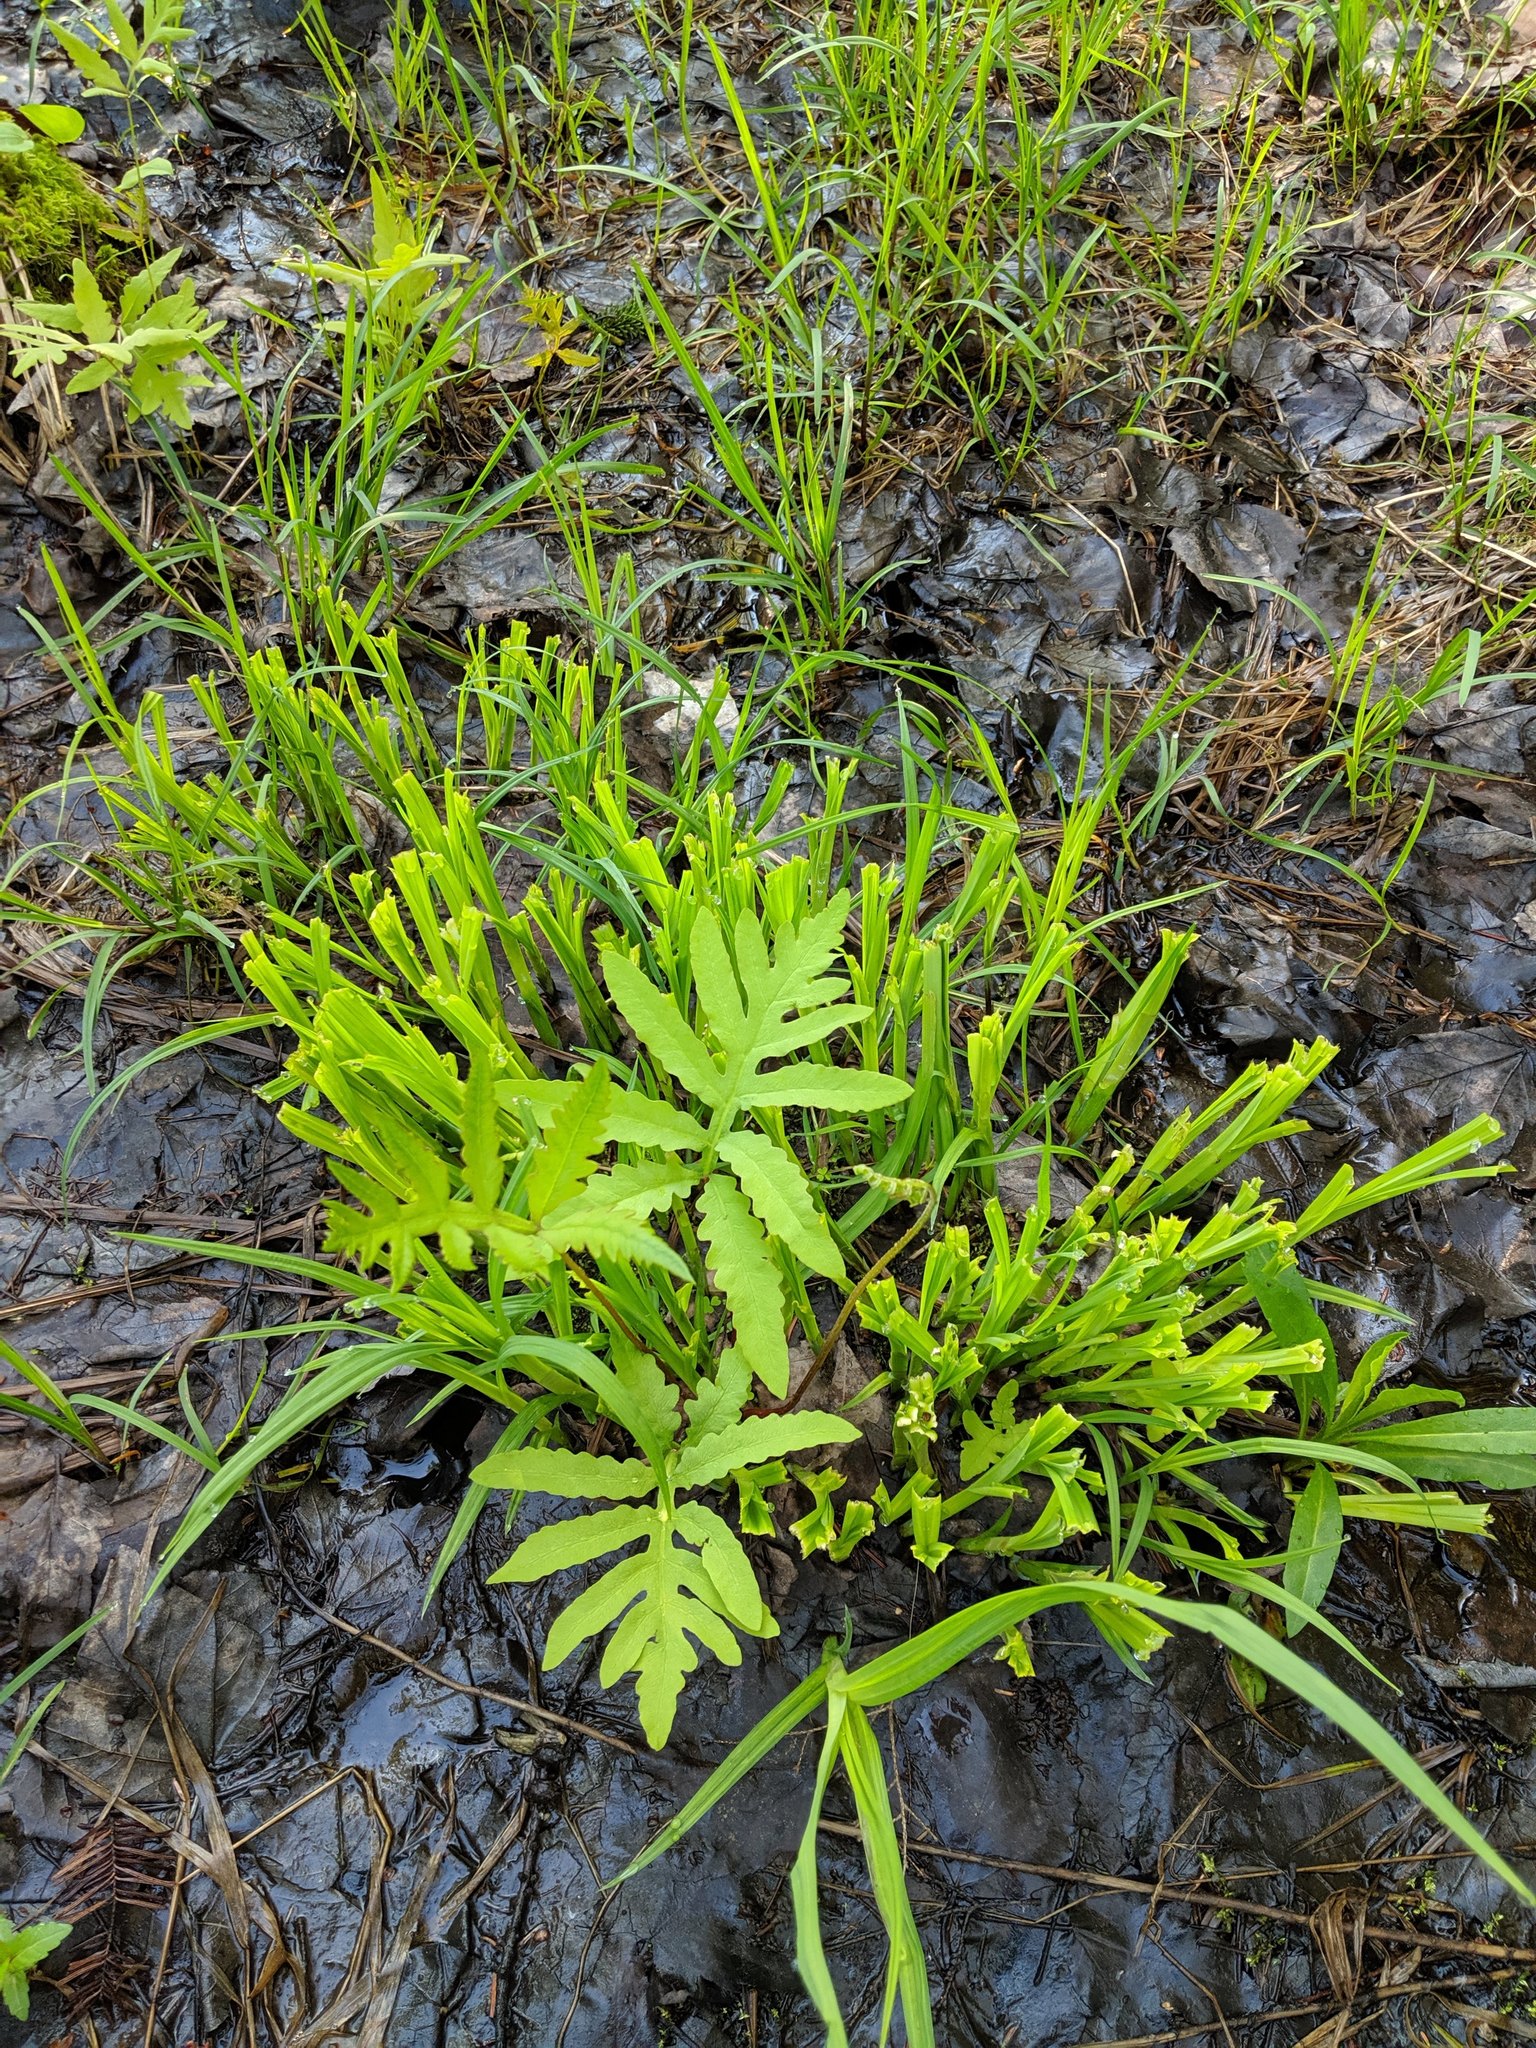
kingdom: Plantae
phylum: Tracheophyta
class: Polypodiopsida
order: Polypodiales
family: Onocleaceae
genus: Onoclea
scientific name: Onoclea sensibilis
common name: Sensitive fern
